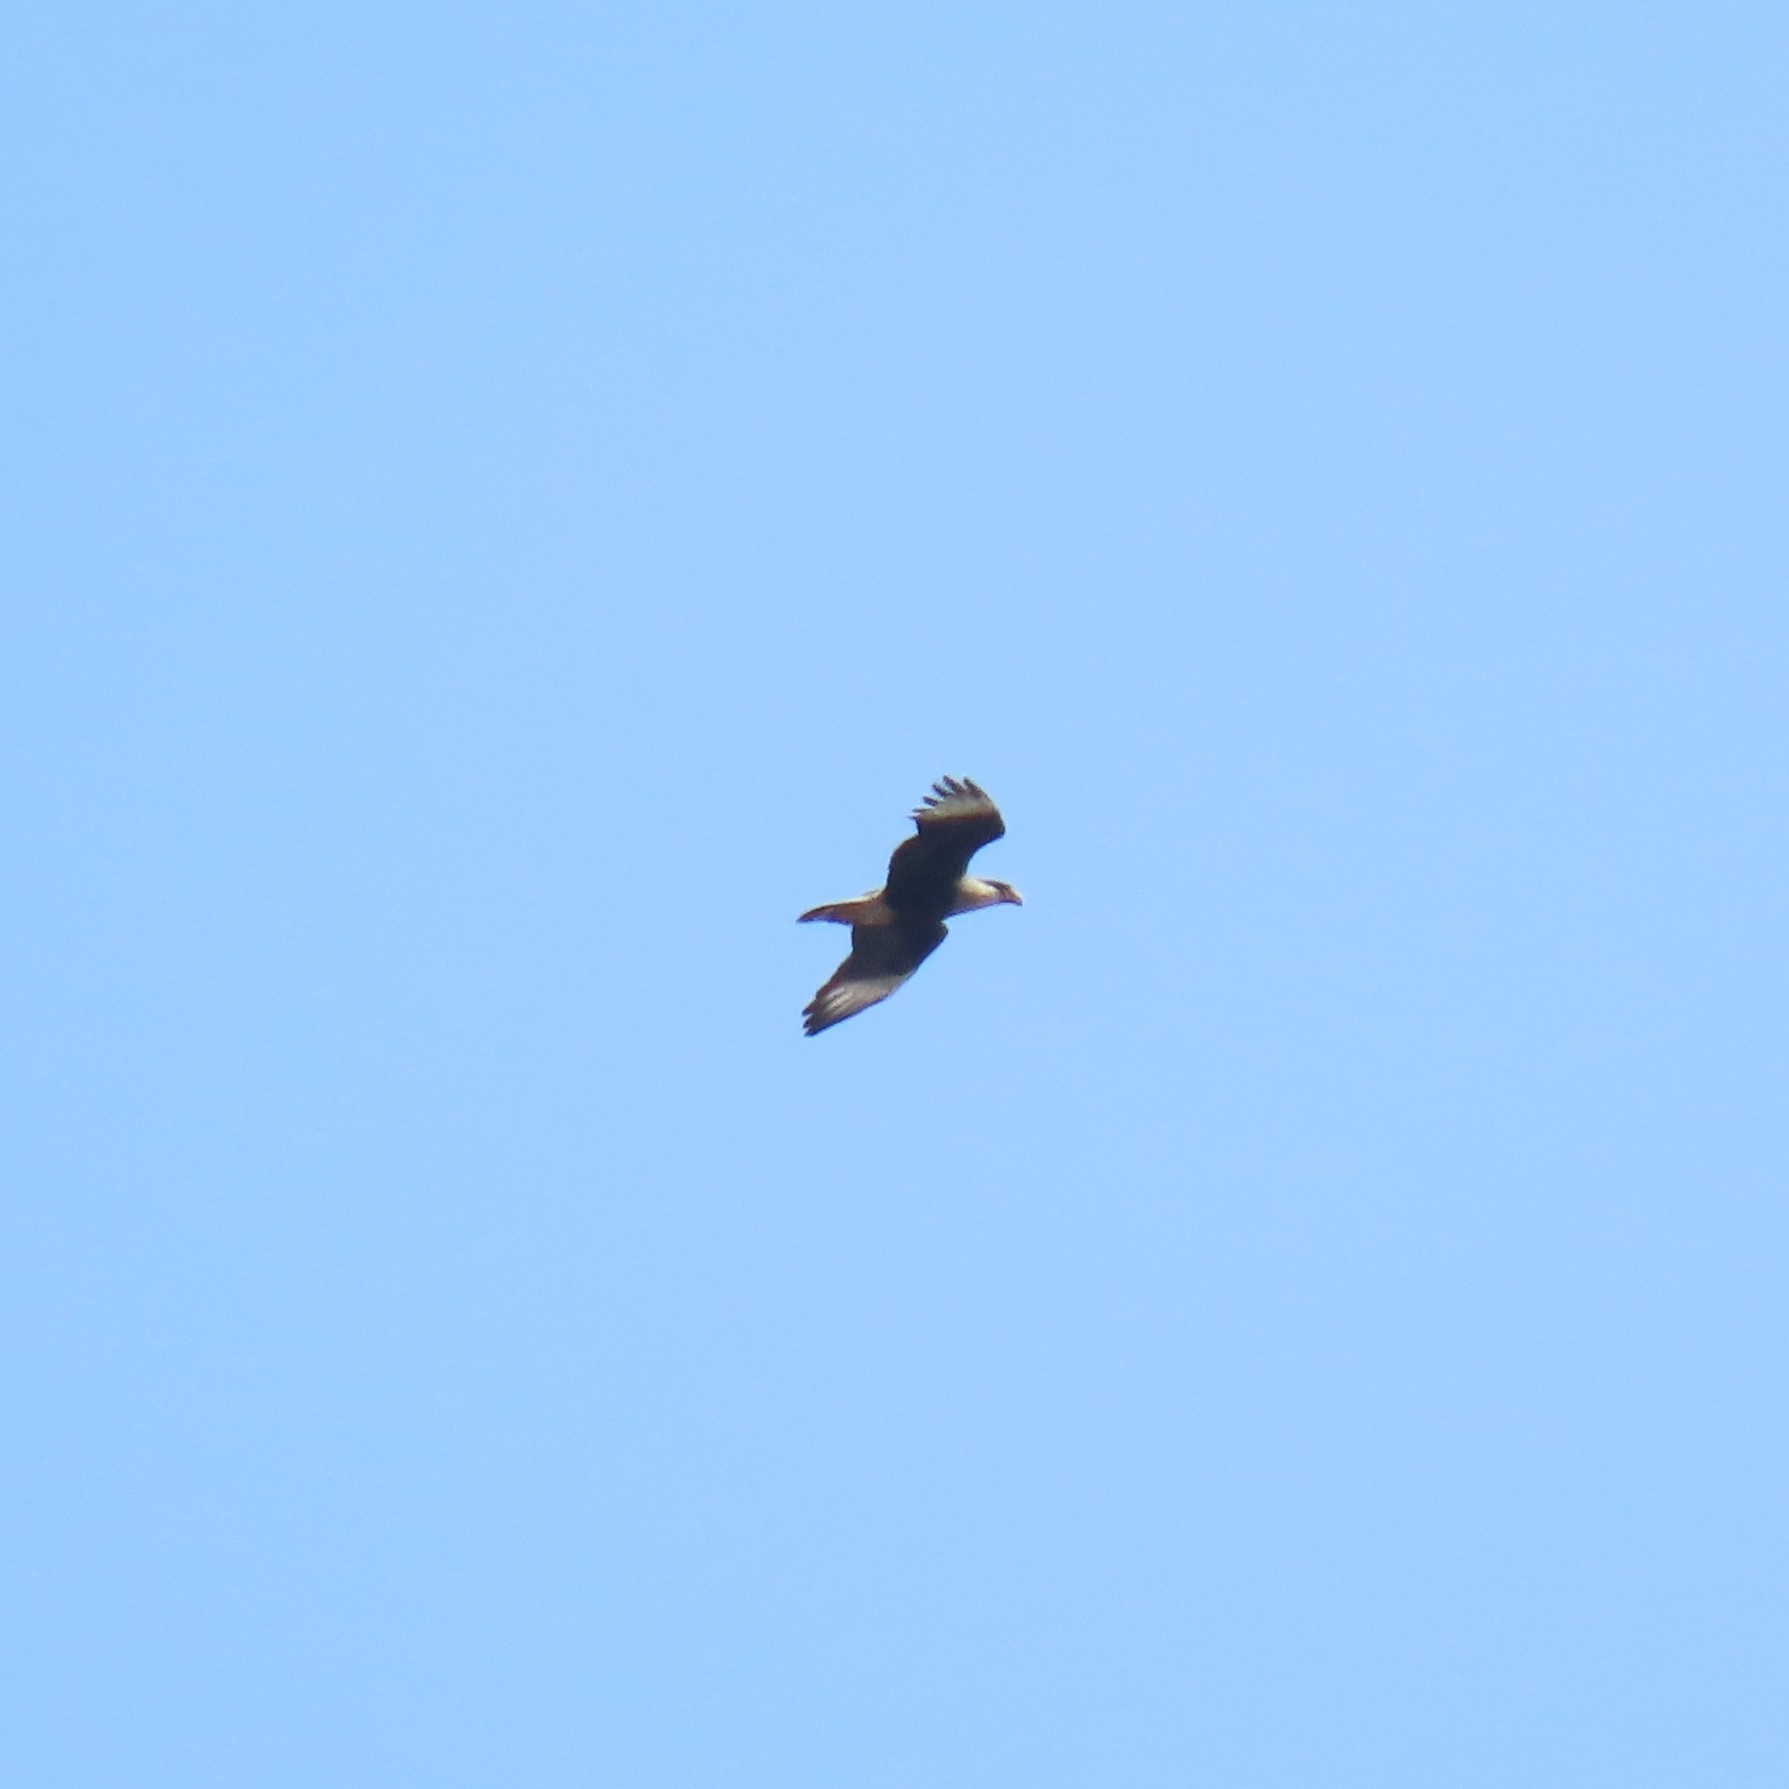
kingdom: Animalia
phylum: Chordata
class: Aves
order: Falconiformes
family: Falconidae
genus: Caracara
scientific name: Caracara plancus
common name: Southern caracara
